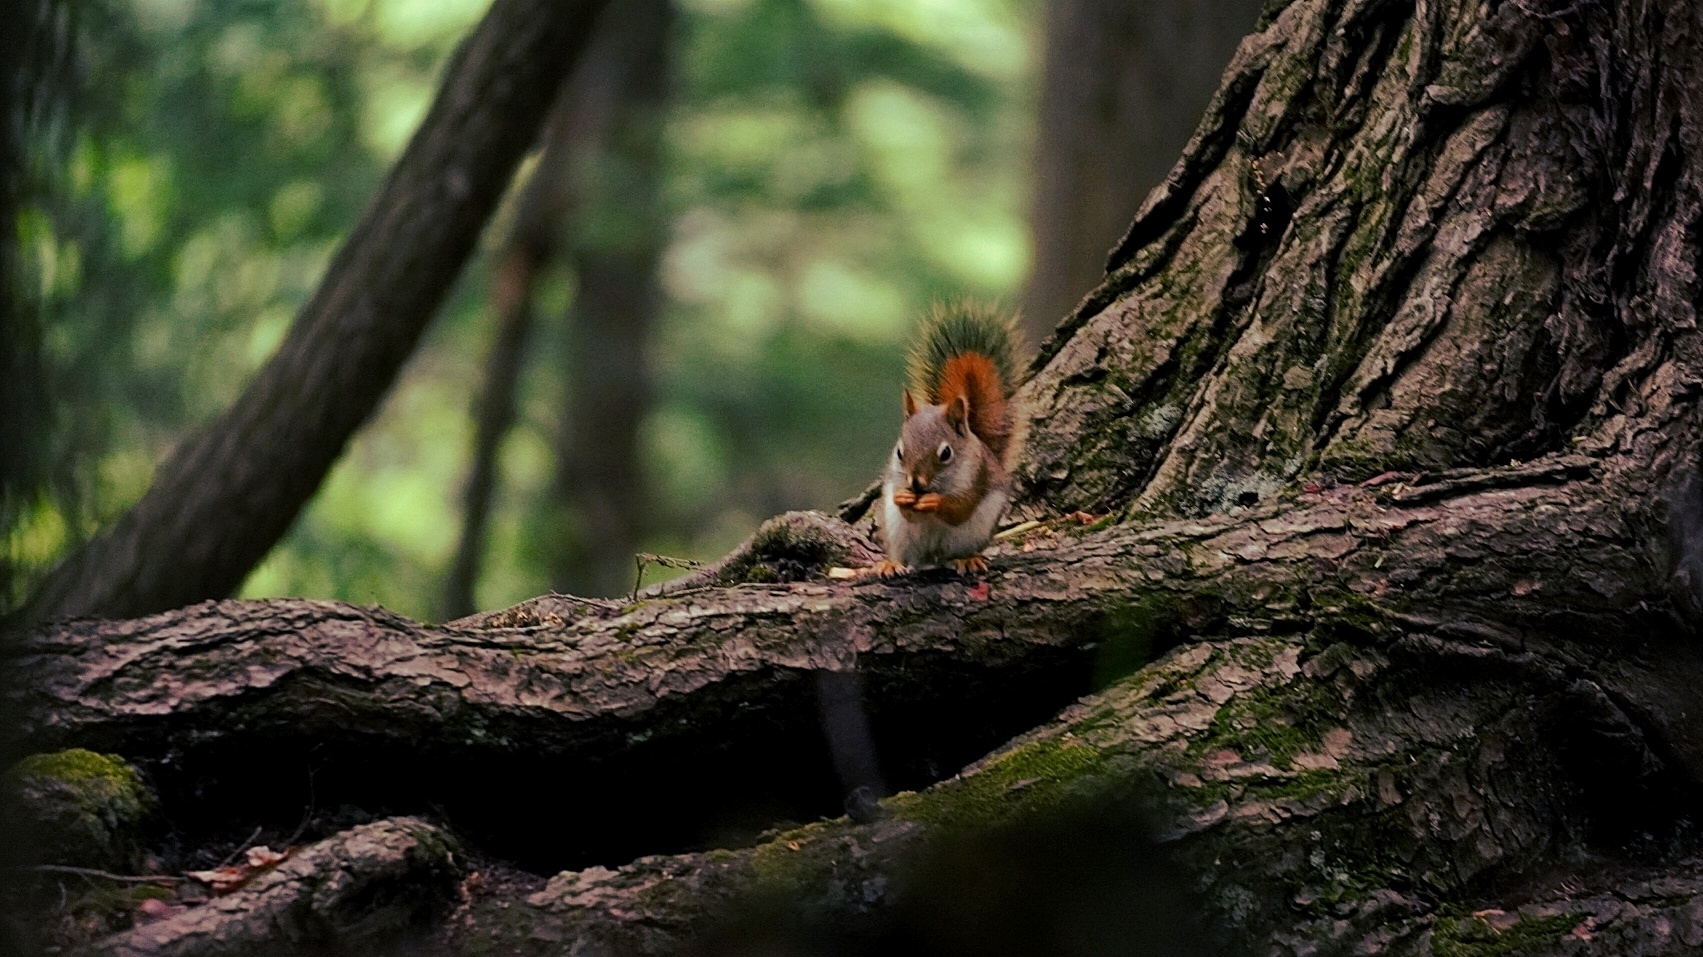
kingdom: Animalia
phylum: Chordata
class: Mammalia
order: Rodentia
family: Sciuridae
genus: Tamiasciurus
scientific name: Tamiasciurus hudsonicus
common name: Red squirrel
